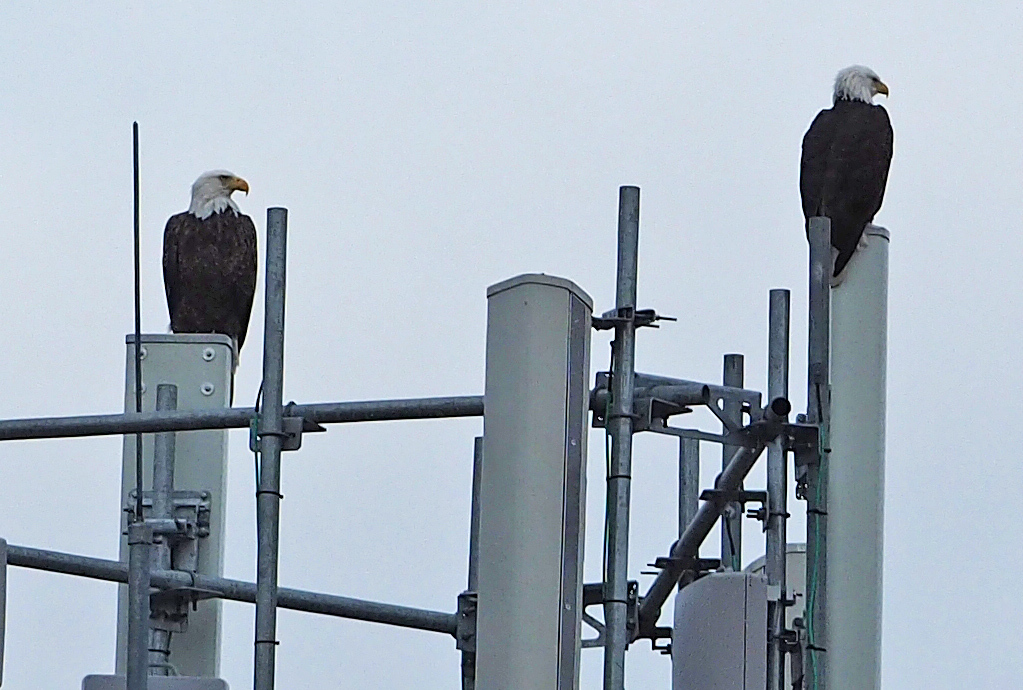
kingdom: Animalia
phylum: Chordata
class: Aves
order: Accipitriformes
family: Accipitridae
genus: Haliaeetus
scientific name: Haliaeetus leucocephalus
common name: Bald eagle
